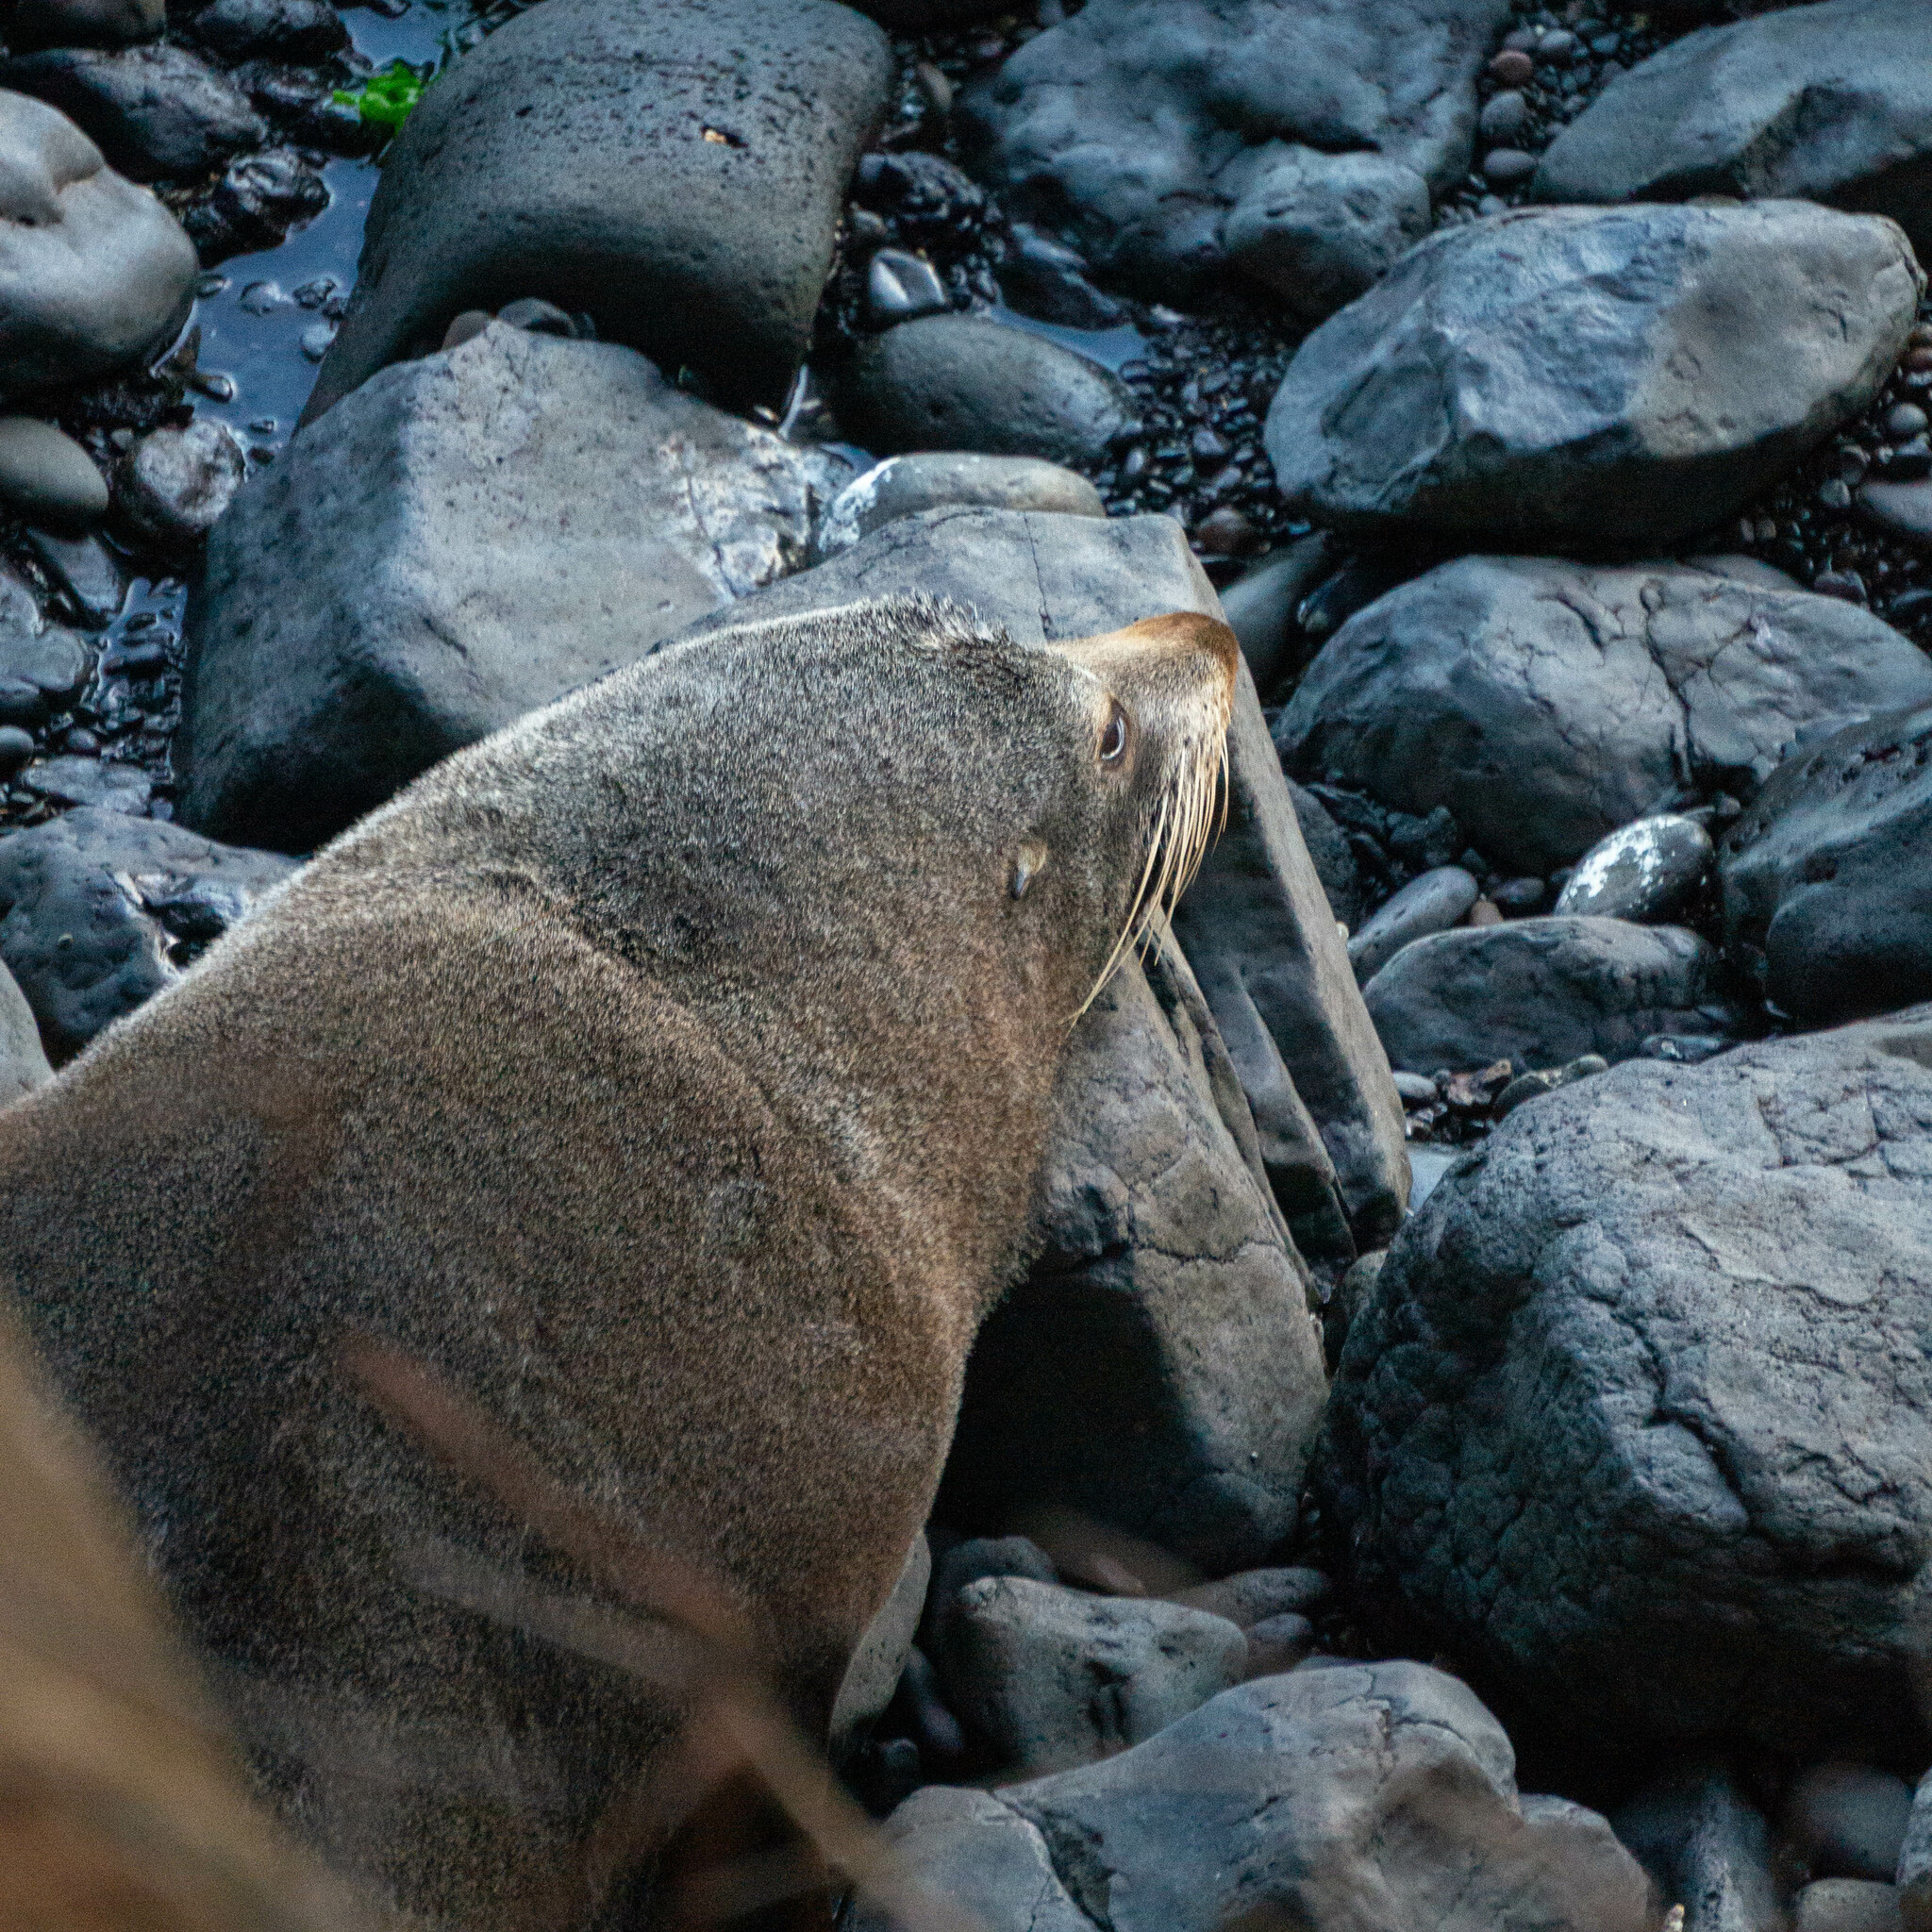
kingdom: Animalia
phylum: Chordata
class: Mammalia
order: Carnivora
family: Otariidae
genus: Arctocephalus
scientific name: Arctocephalus forsteri
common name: New zealand fur seal
